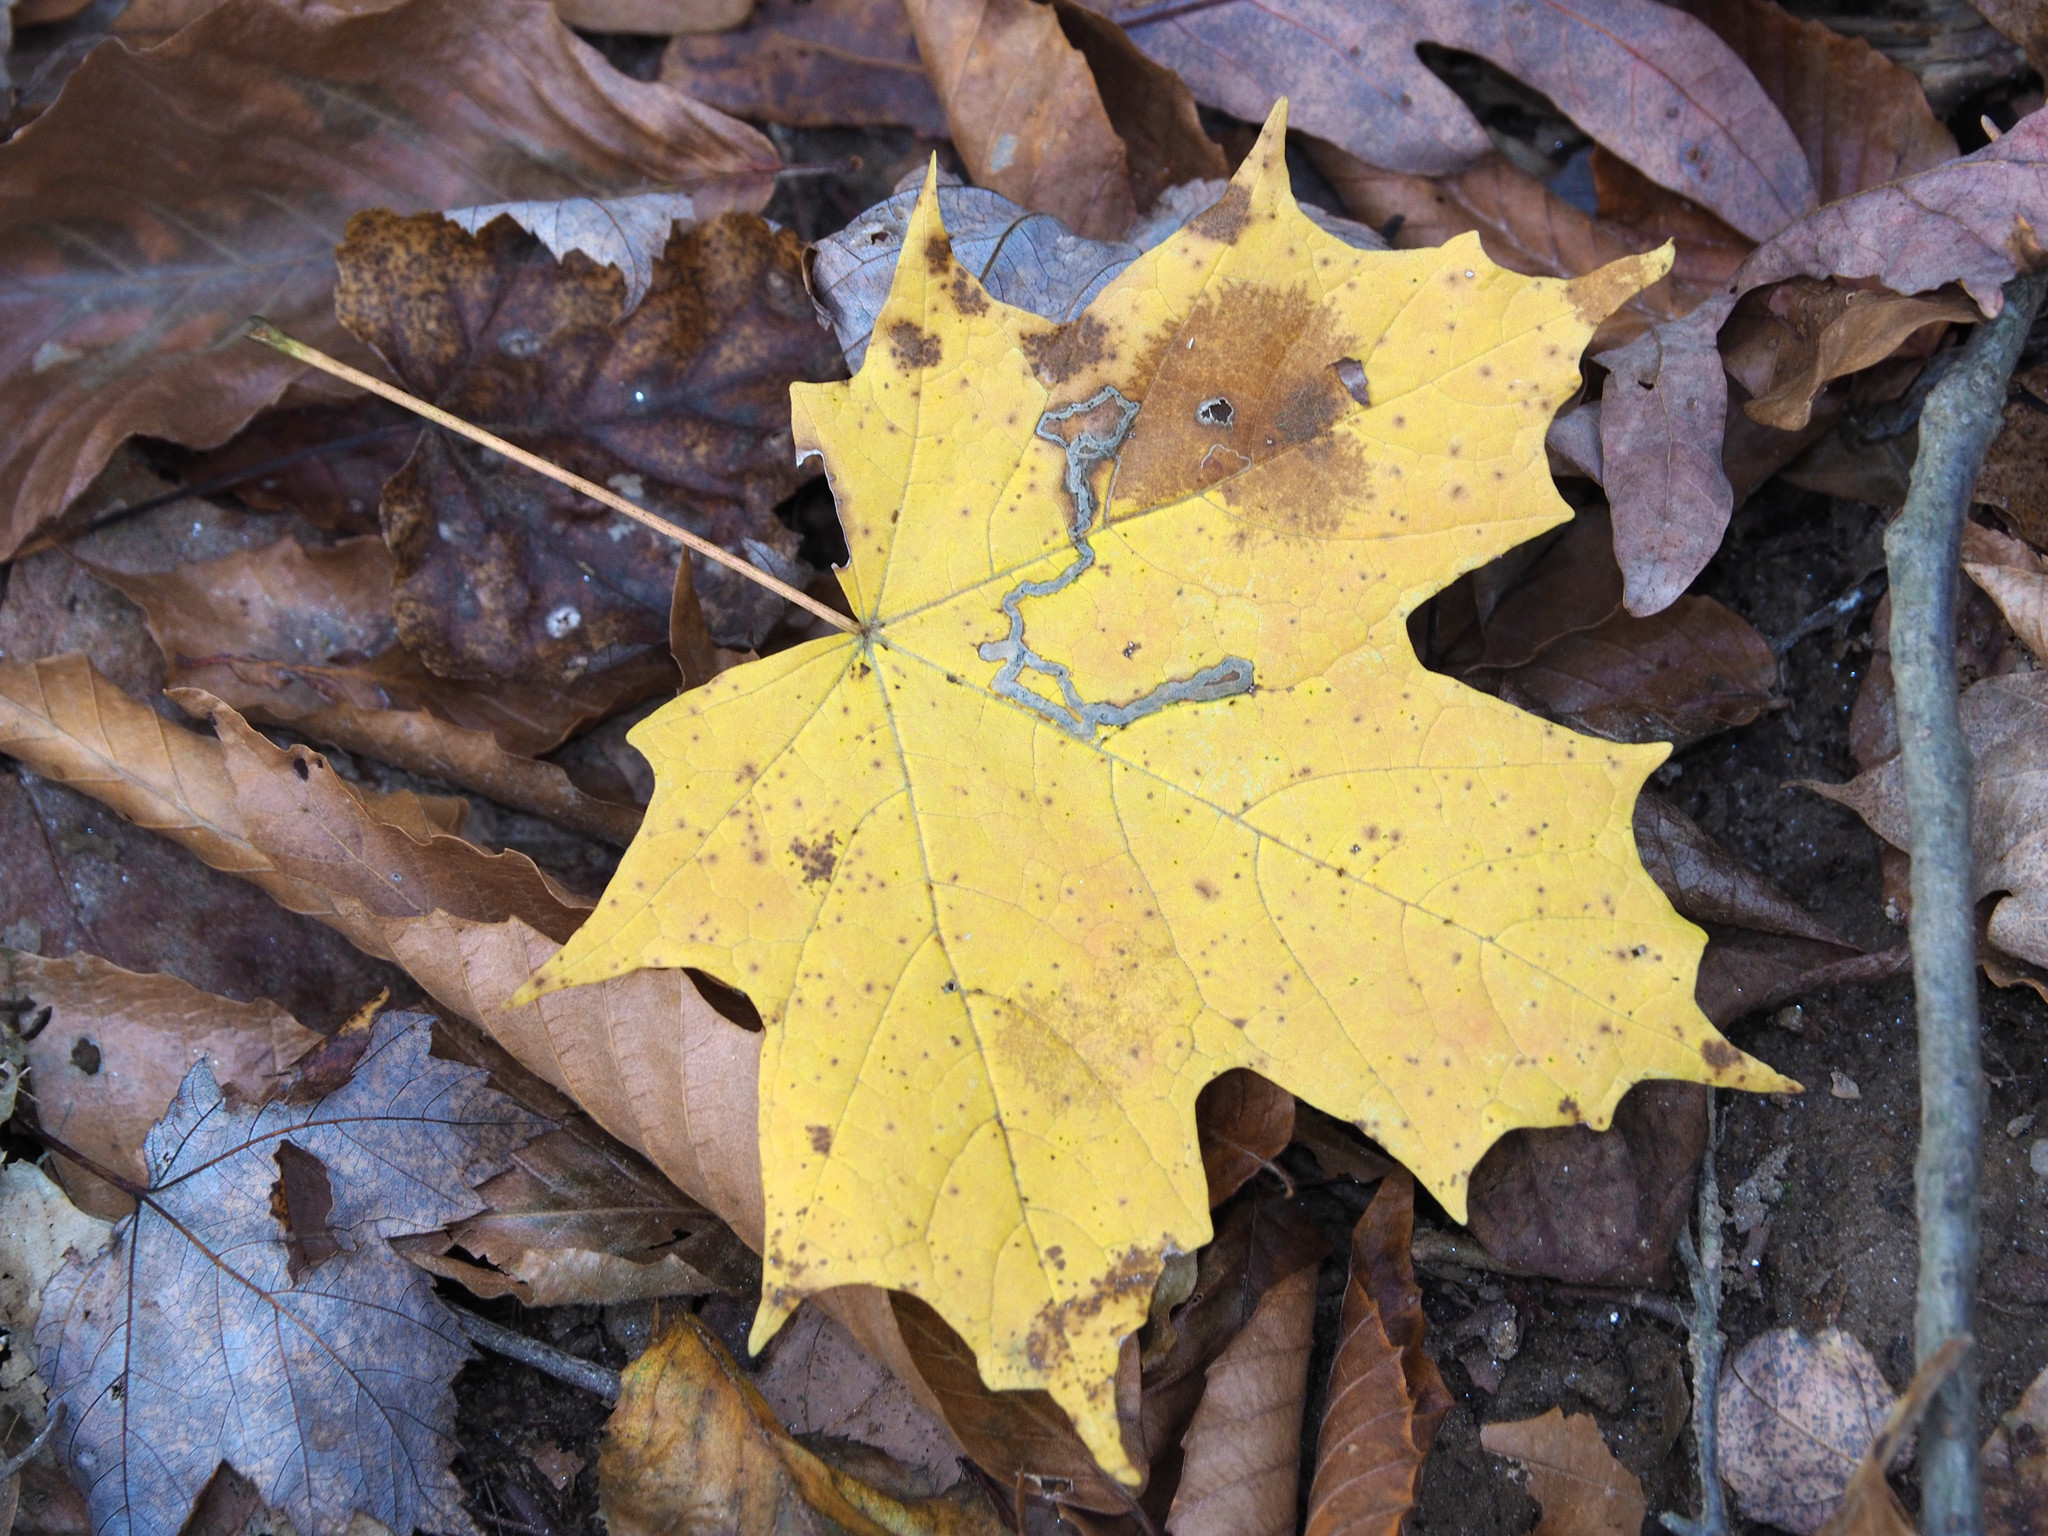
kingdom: Plantae
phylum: Tracheophyta
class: Magnoliopsida
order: Sapindales
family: Sapindaceae
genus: Acer
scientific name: Acer saccharum
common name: Sugar maple
